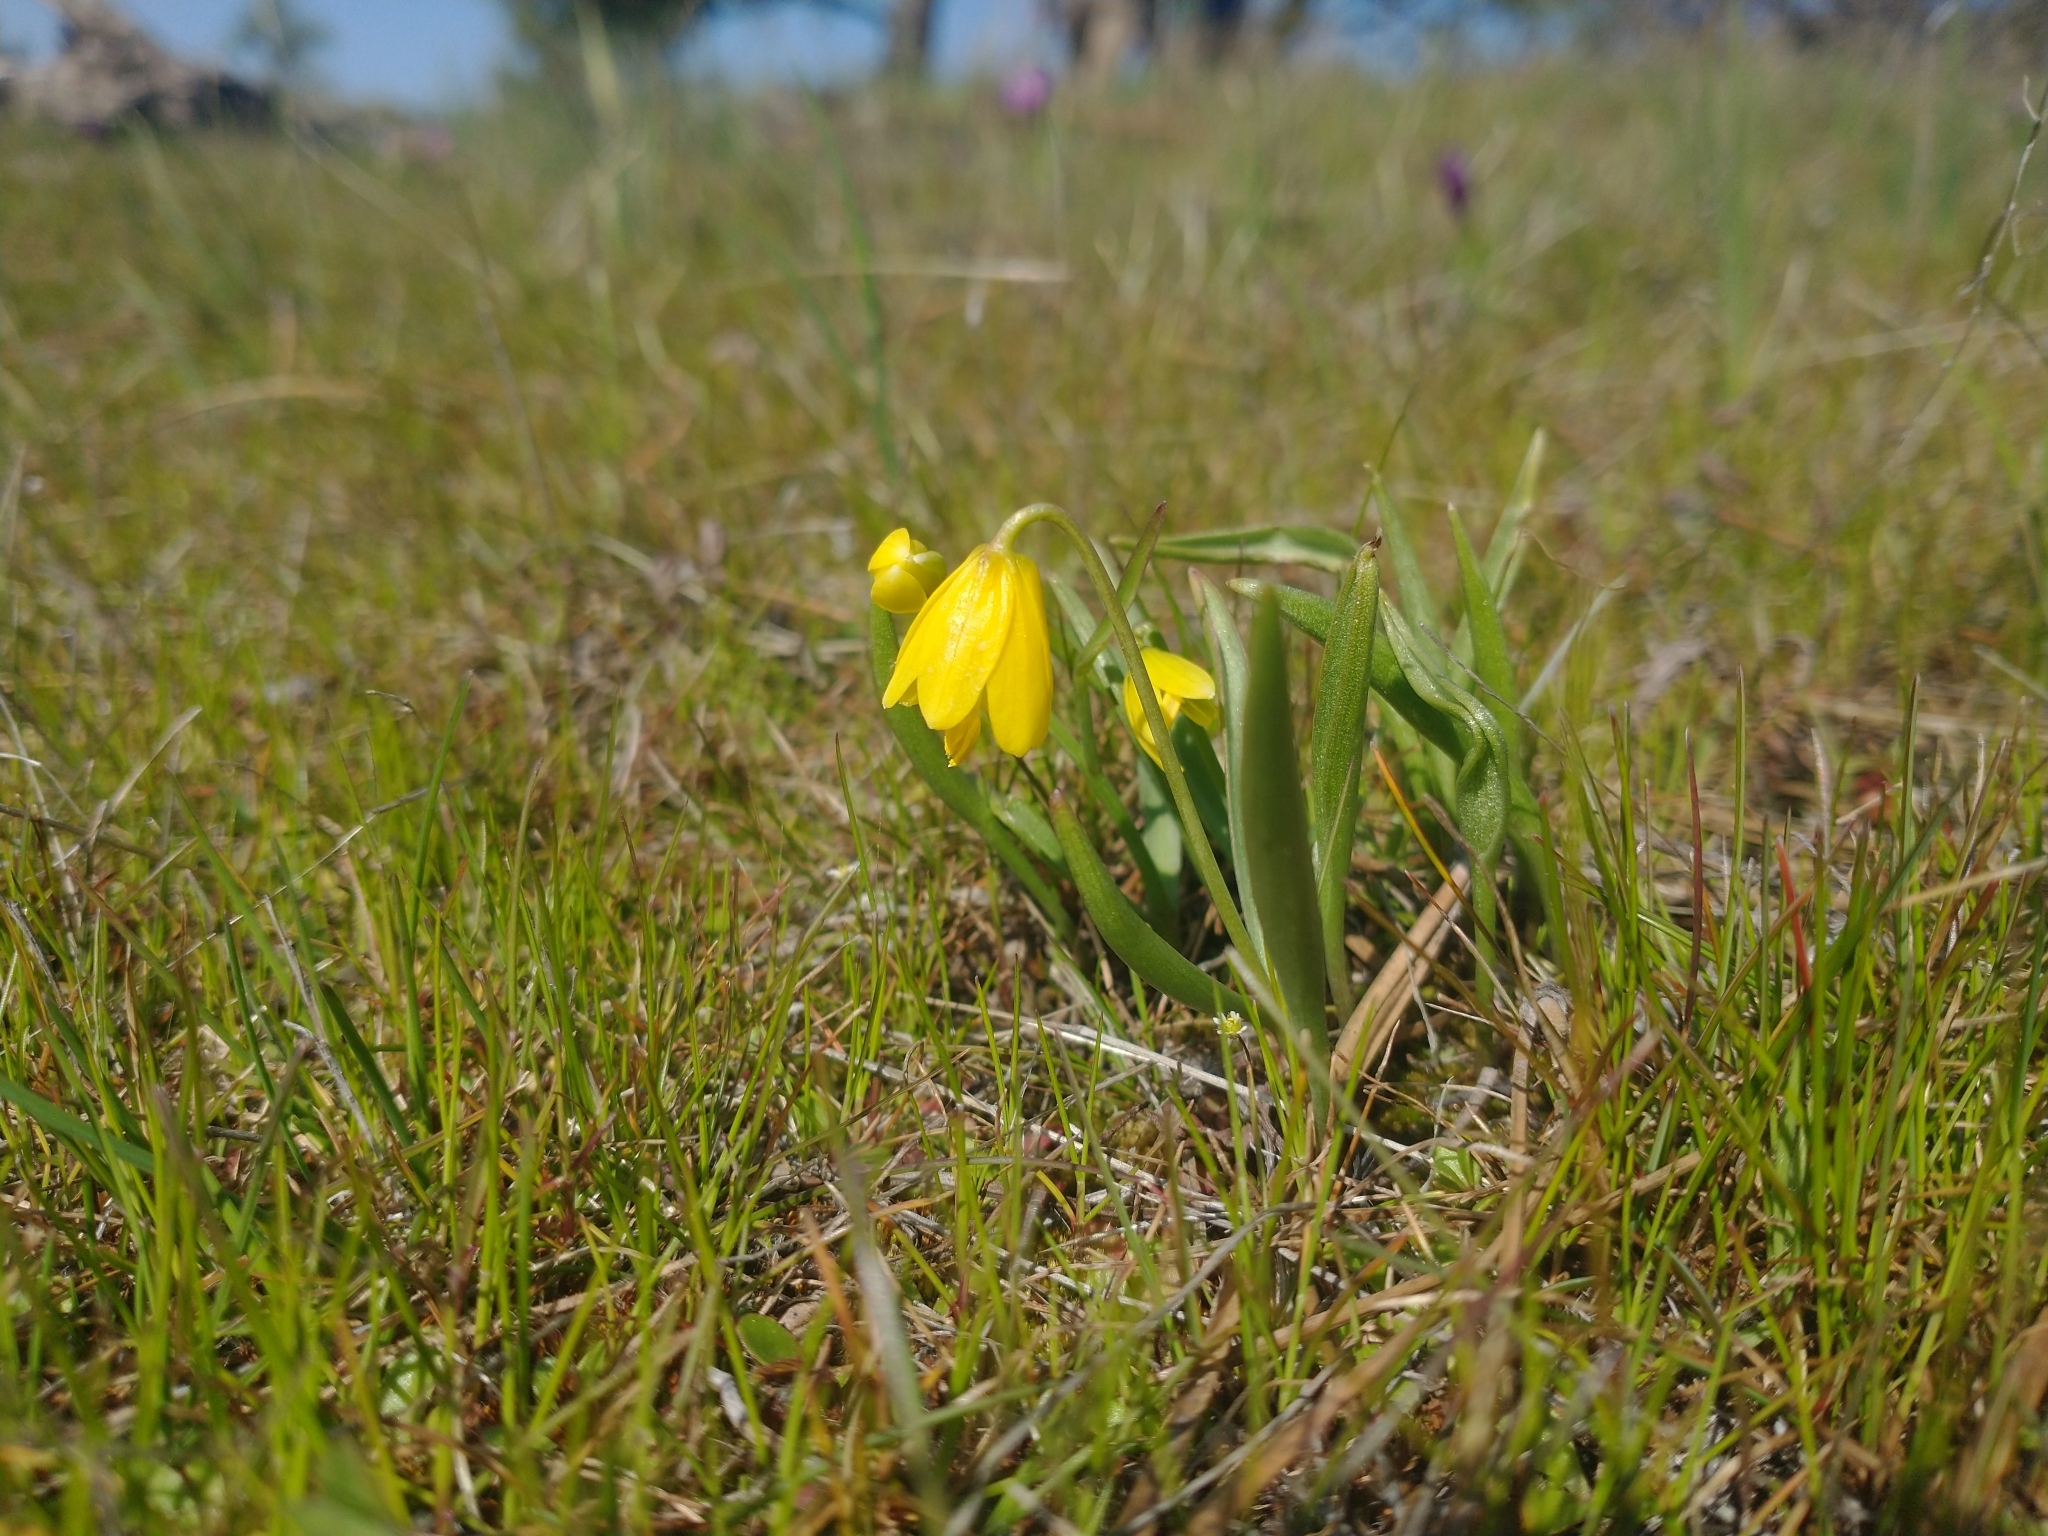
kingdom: Plantae
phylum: Tracheophyta
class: Liliopsida
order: Liliales
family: Liliaceae
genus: Fritillaria
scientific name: Fritillaria pudica
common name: Yellow fritillary
